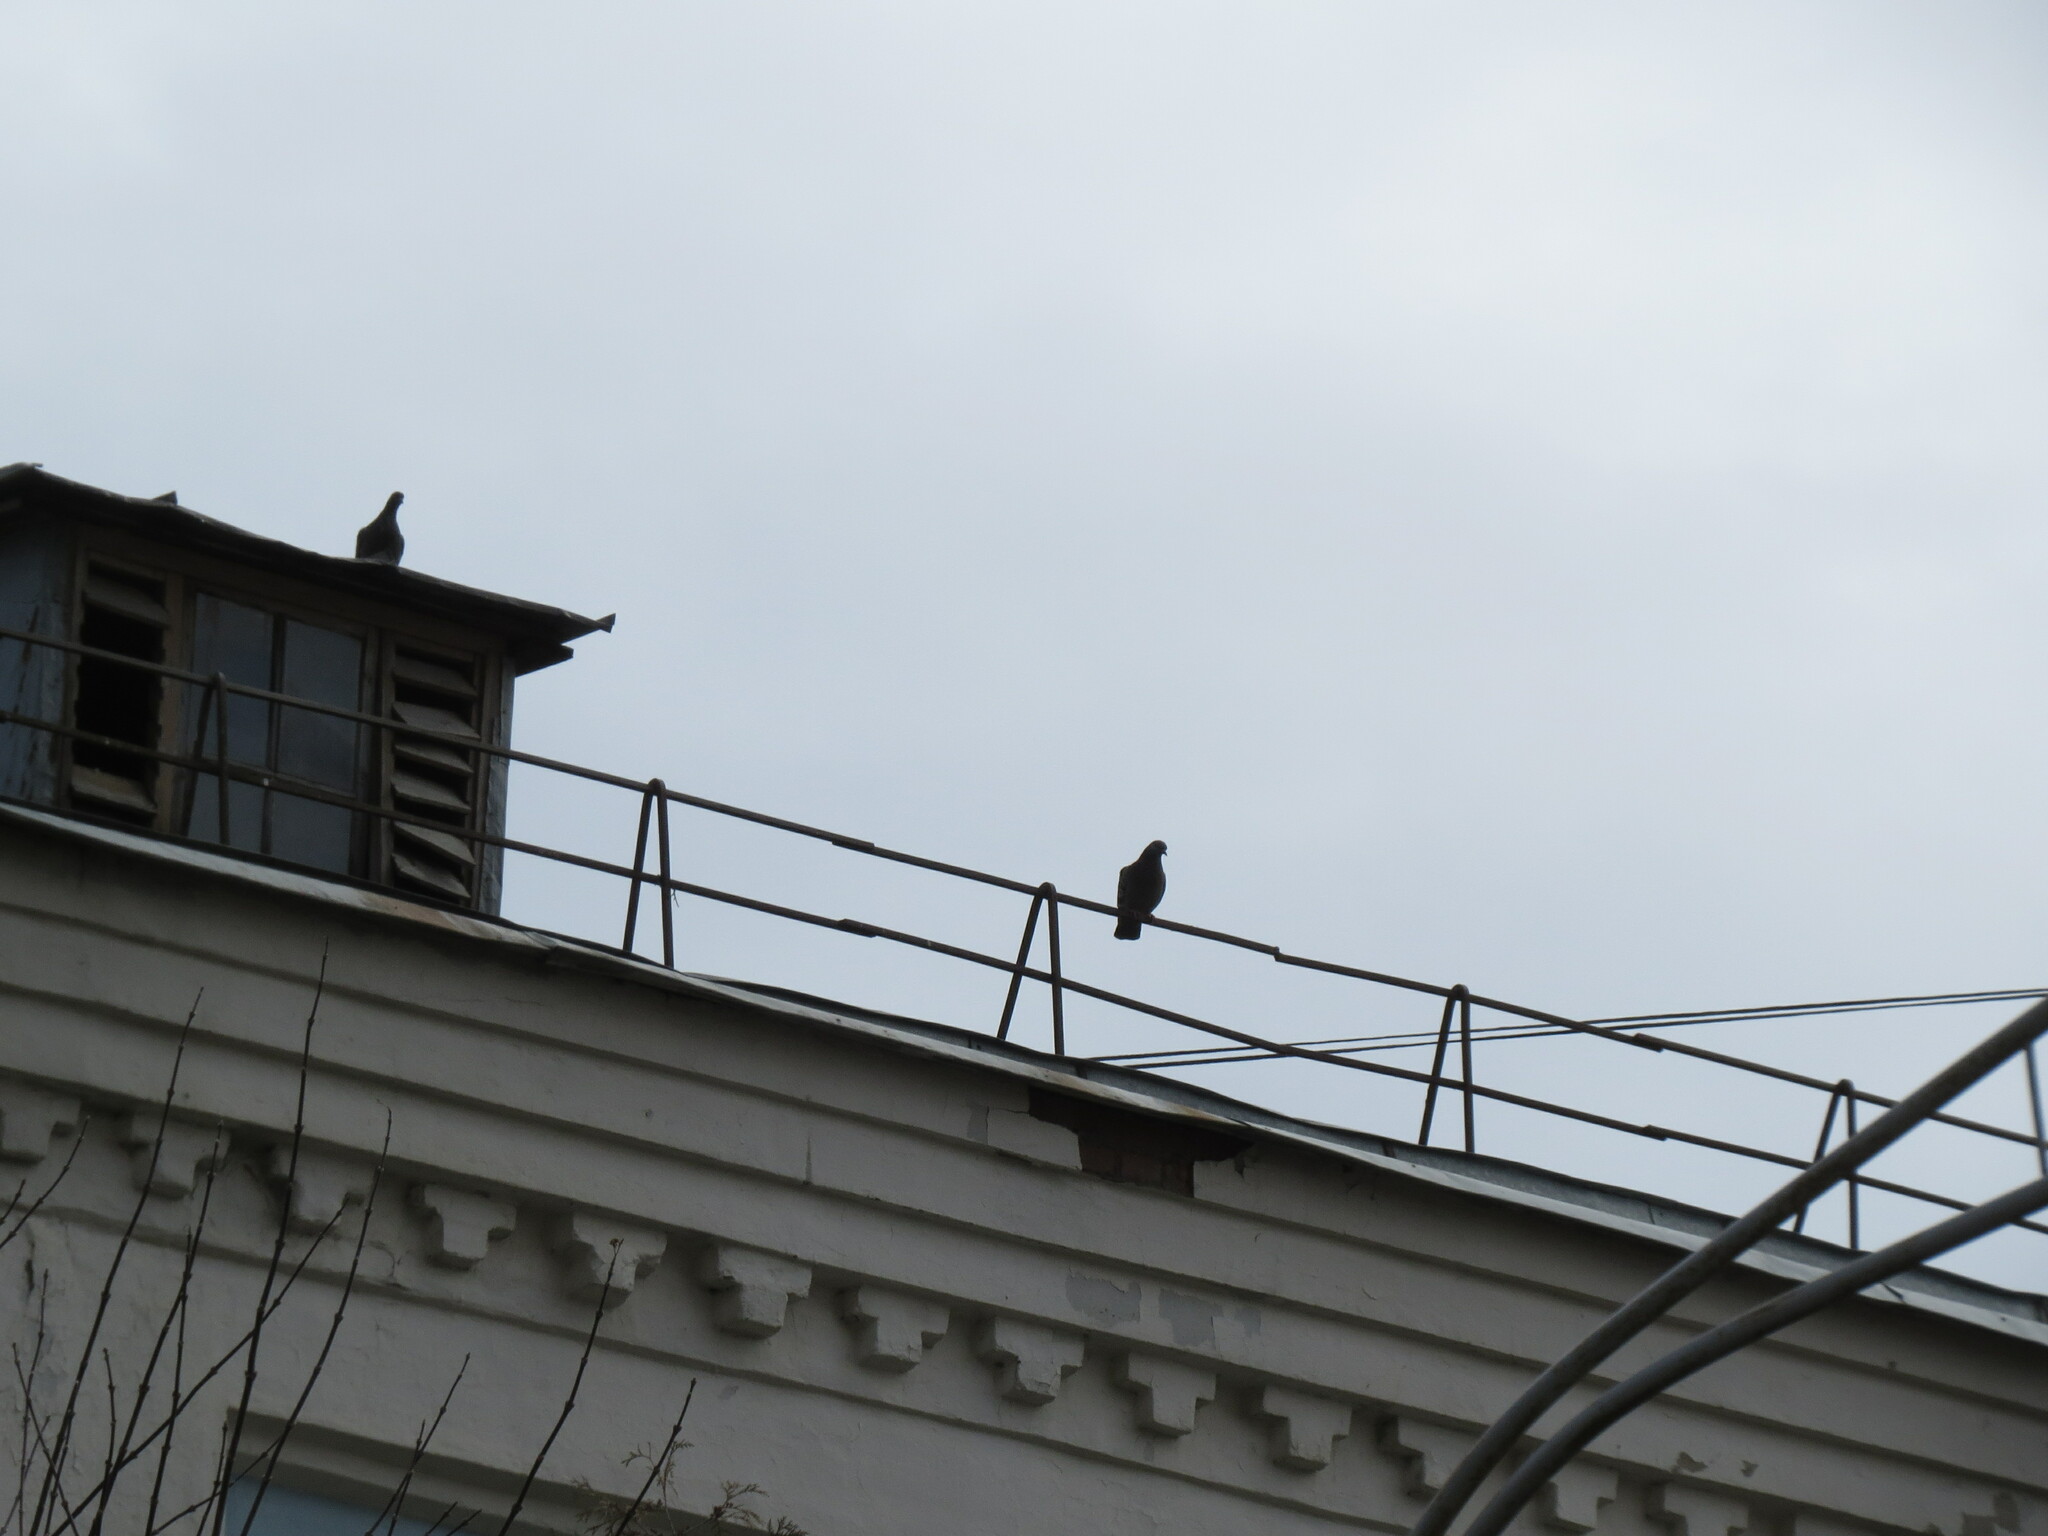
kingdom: Animalia
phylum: Chordata
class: Aves
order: Columbiformes
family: Columbidae
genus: Columba
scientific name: Columba livia
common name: Rock pigeon
